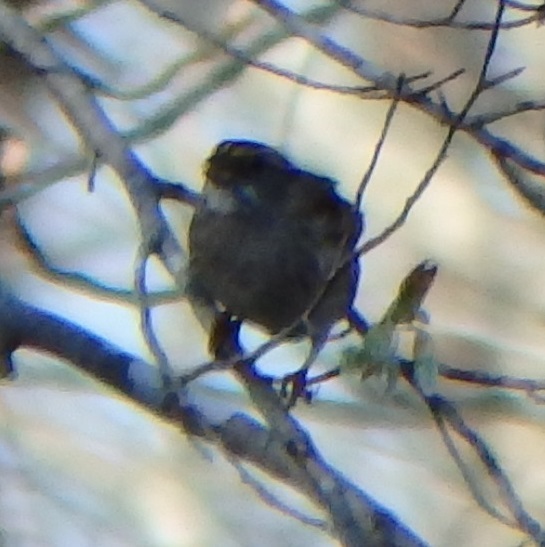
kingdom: Animalia
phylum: Chordata
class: Aves
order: Passeriformes
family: Passerellidae
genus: Zonotrichia
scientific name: Zonotrichia albicollis
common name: White-throated sparrow
